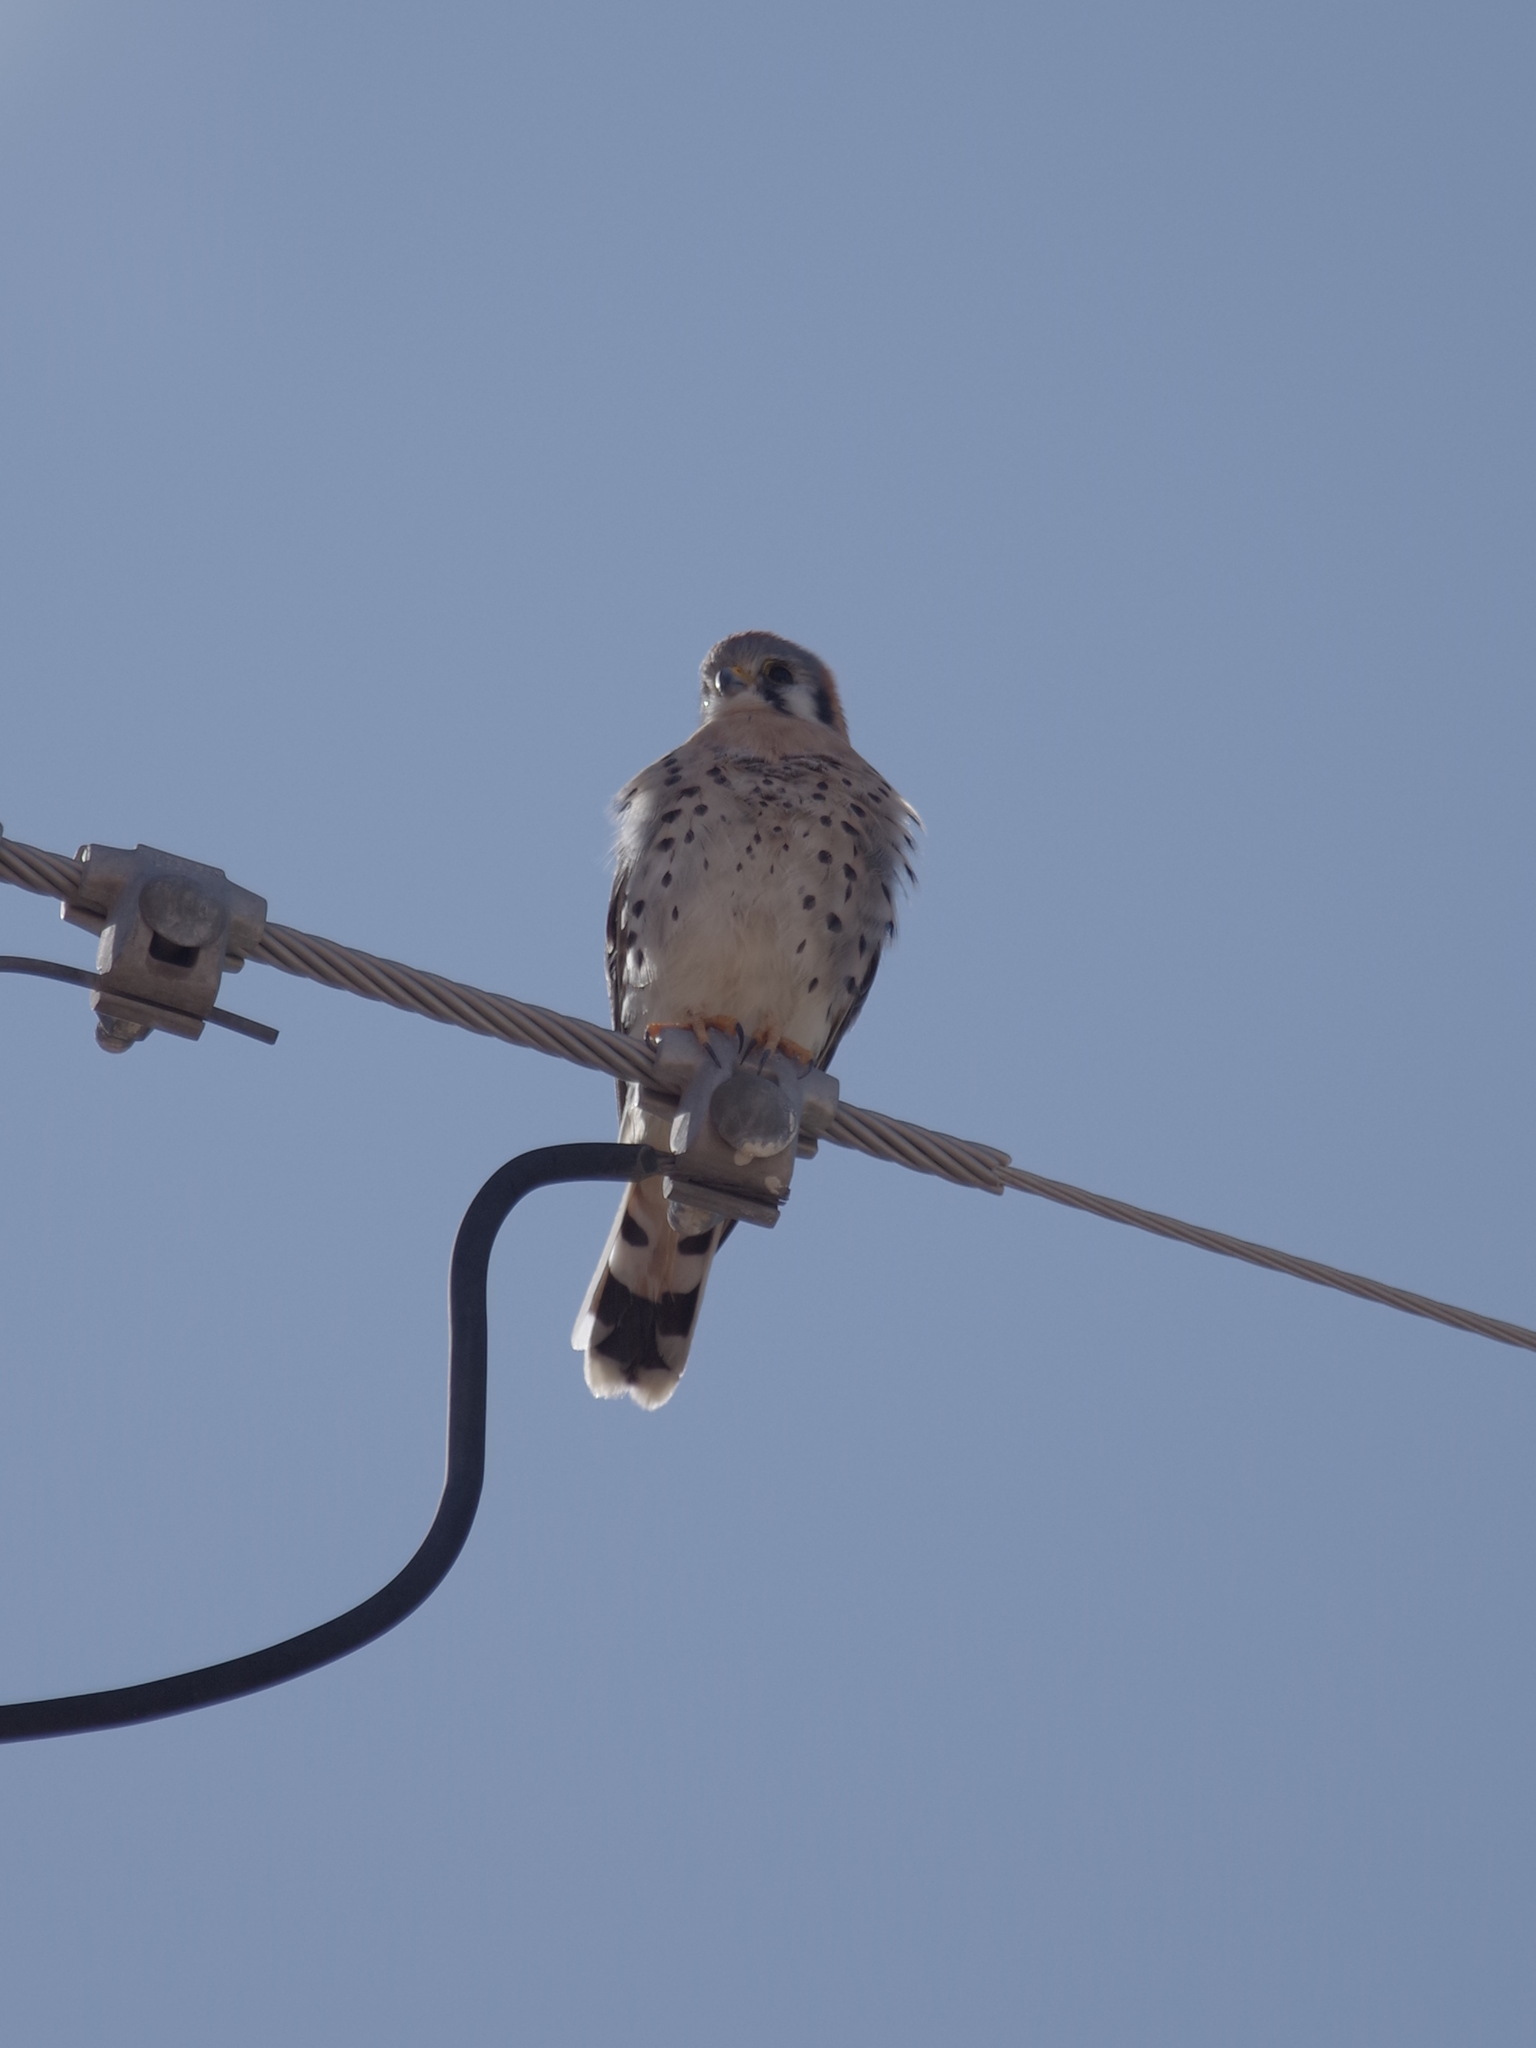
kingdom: Animalia
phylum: Chordata
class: Aves
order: Falconiformes
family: Falconidae
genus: Falco
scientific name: Falco sparverius
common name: American kestrel
